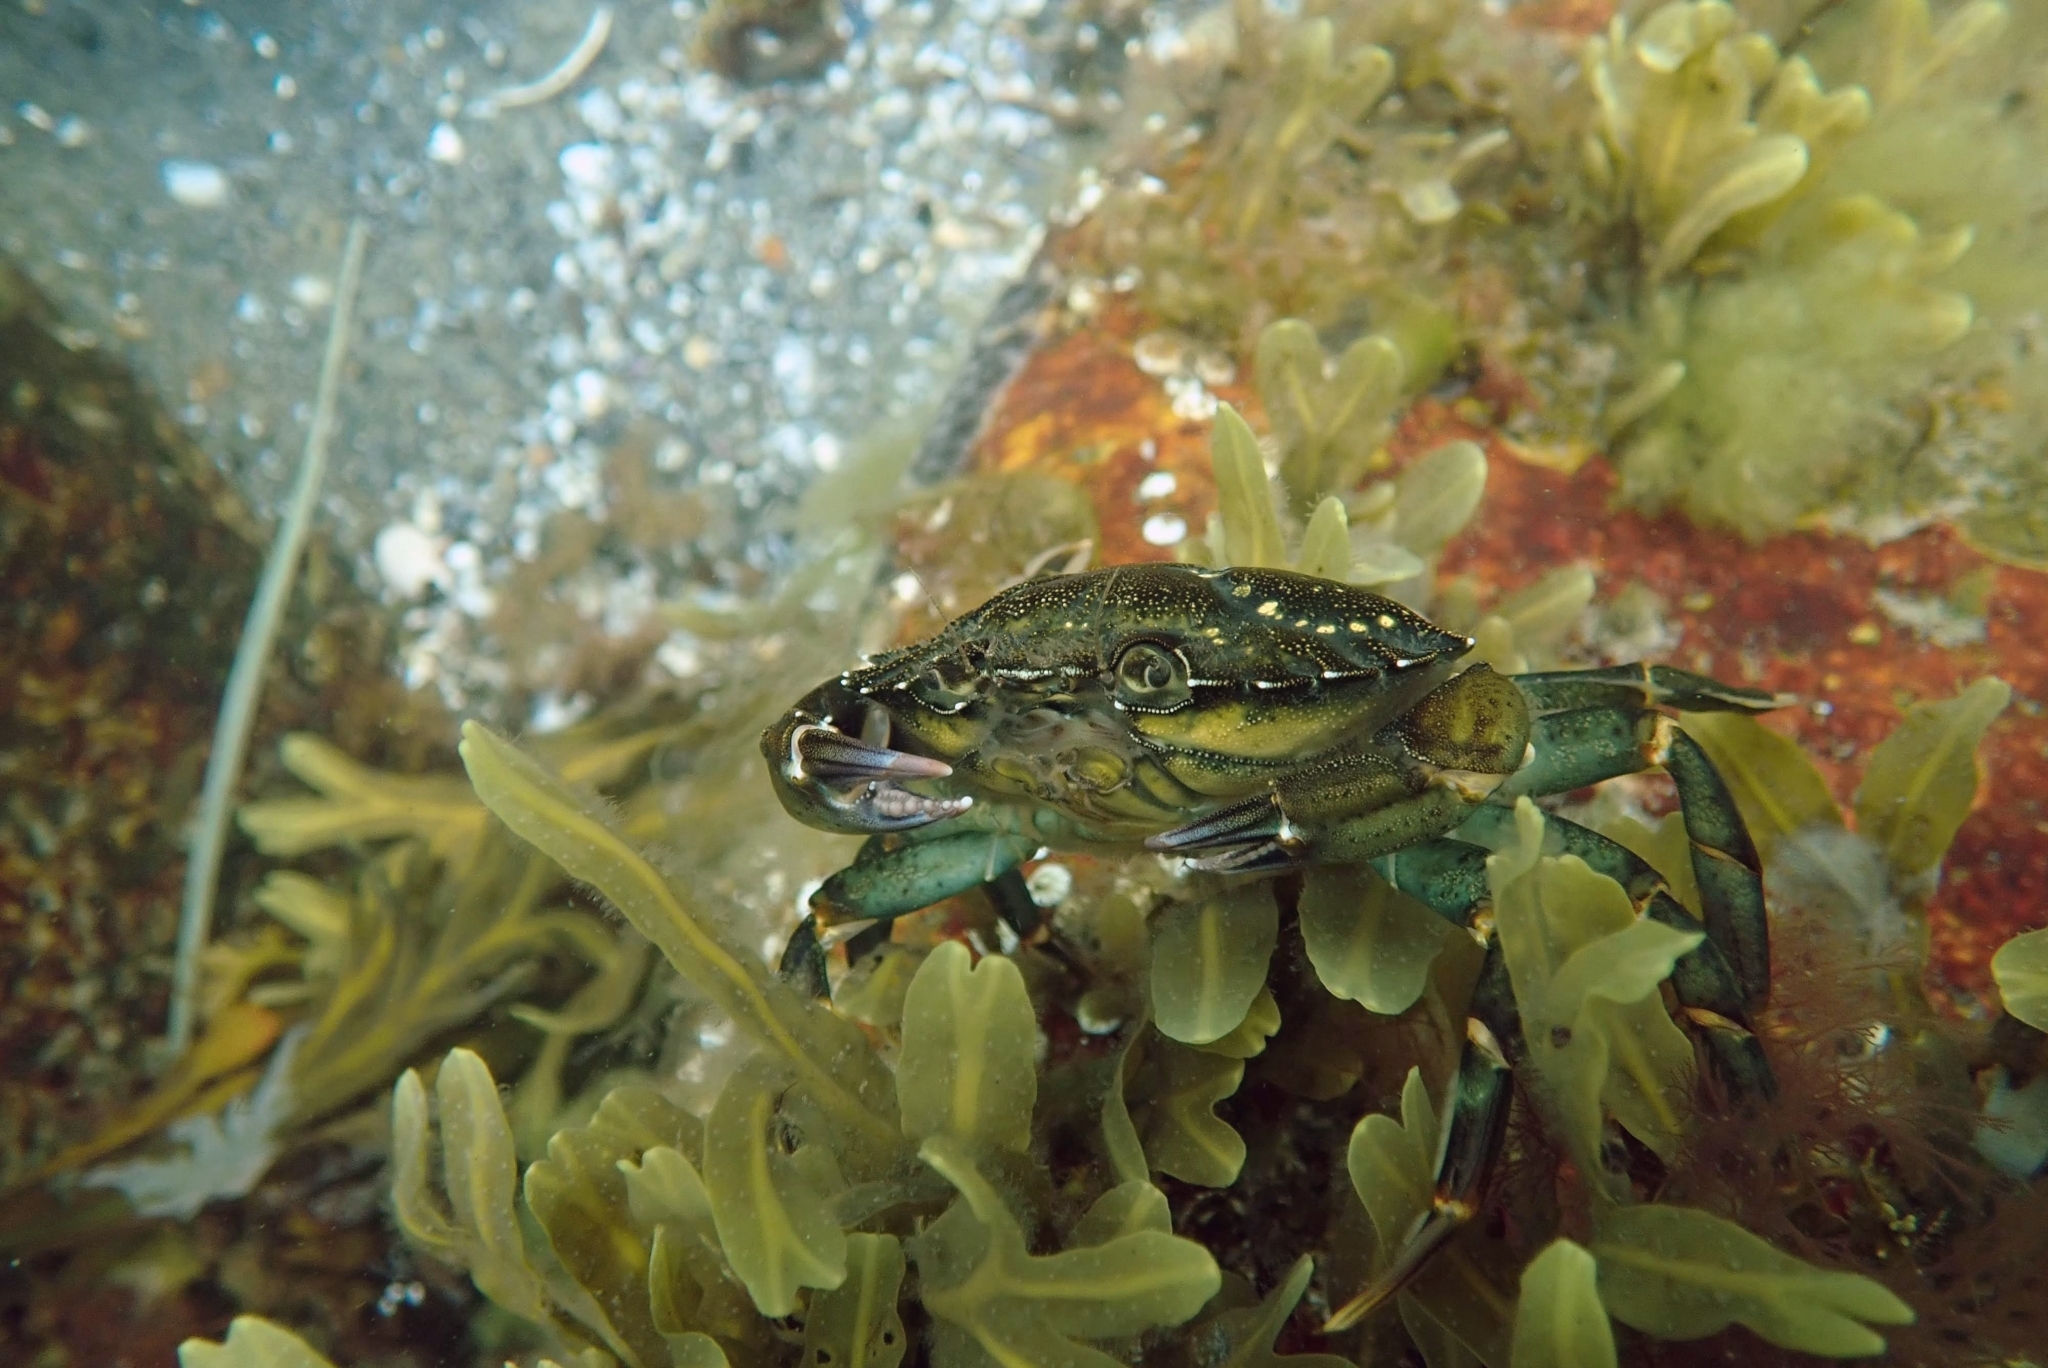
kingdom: Animalia
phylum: Arthropoda
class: Malacostraca
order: Decapoda
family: Carcinidae
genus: Carcinus
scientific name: Carcinus maenas
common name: European green crab
